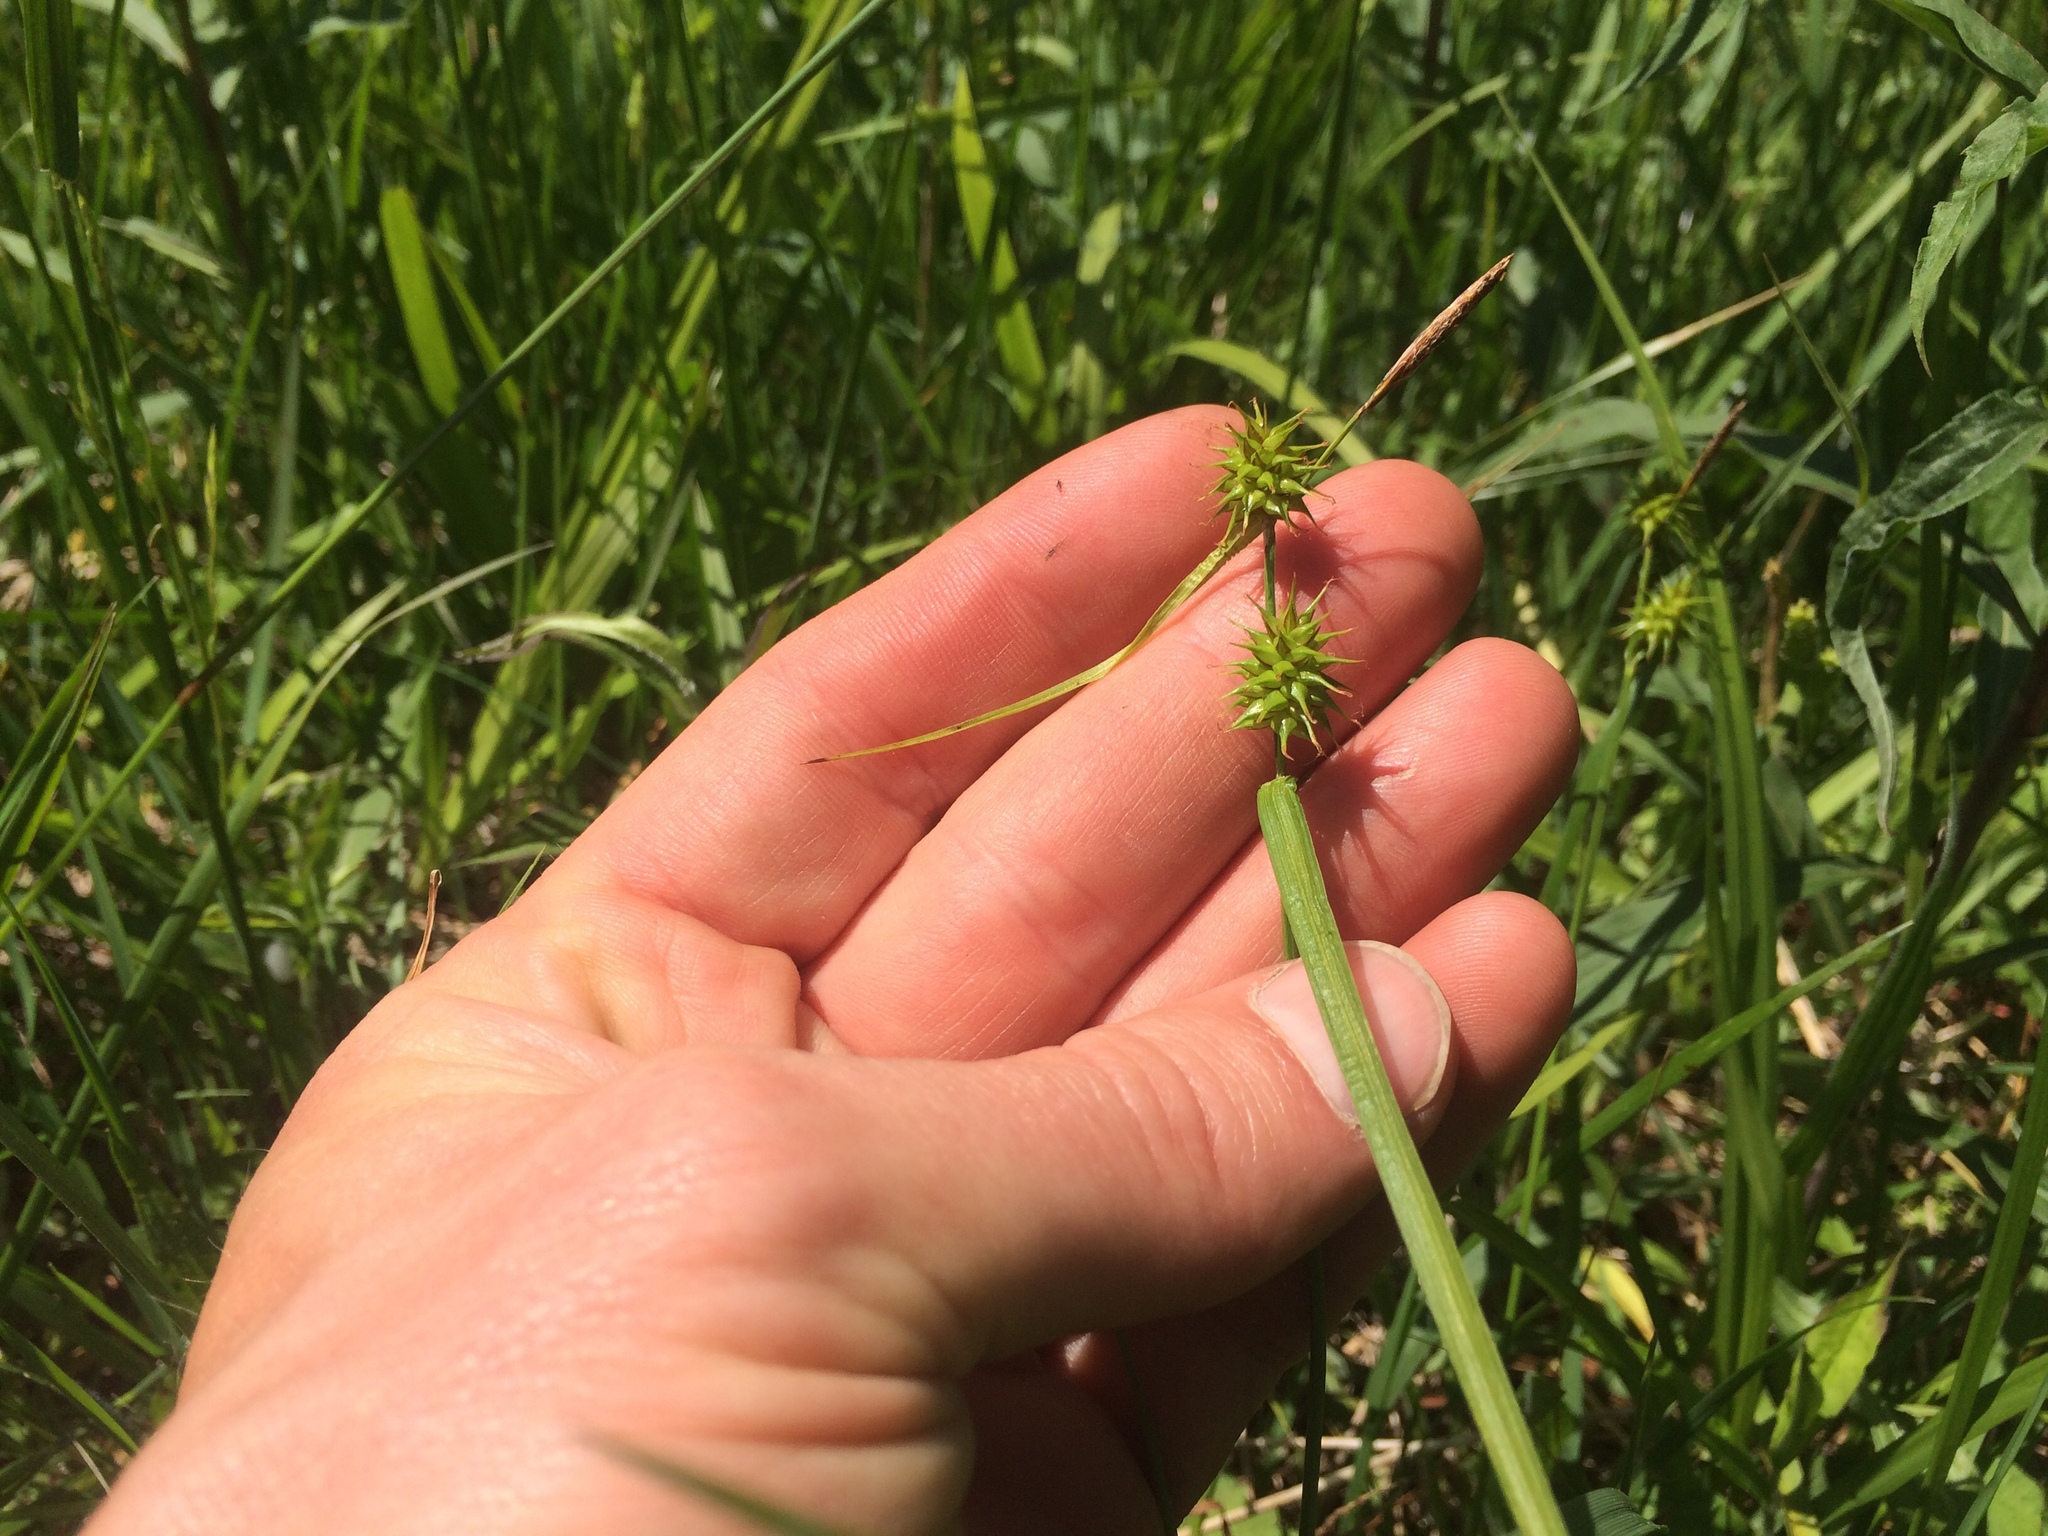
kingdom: Plantae
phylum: Tracheophyta
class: Liliopsida
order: Poales
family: Cyperaceae
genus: Carex
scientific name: Carex flava
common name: Large yellow-sedge
